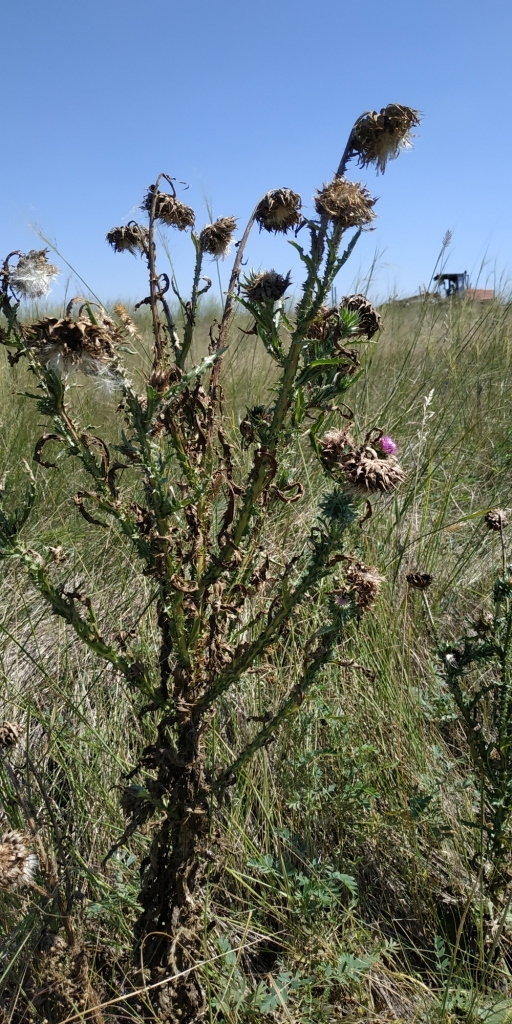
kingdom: Plantae
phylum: Tracheophyta
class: Magnoliopsida
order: Asterales
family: Asteraceae
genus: Carduus
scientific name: Carduus nutans
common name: Musk thistle
